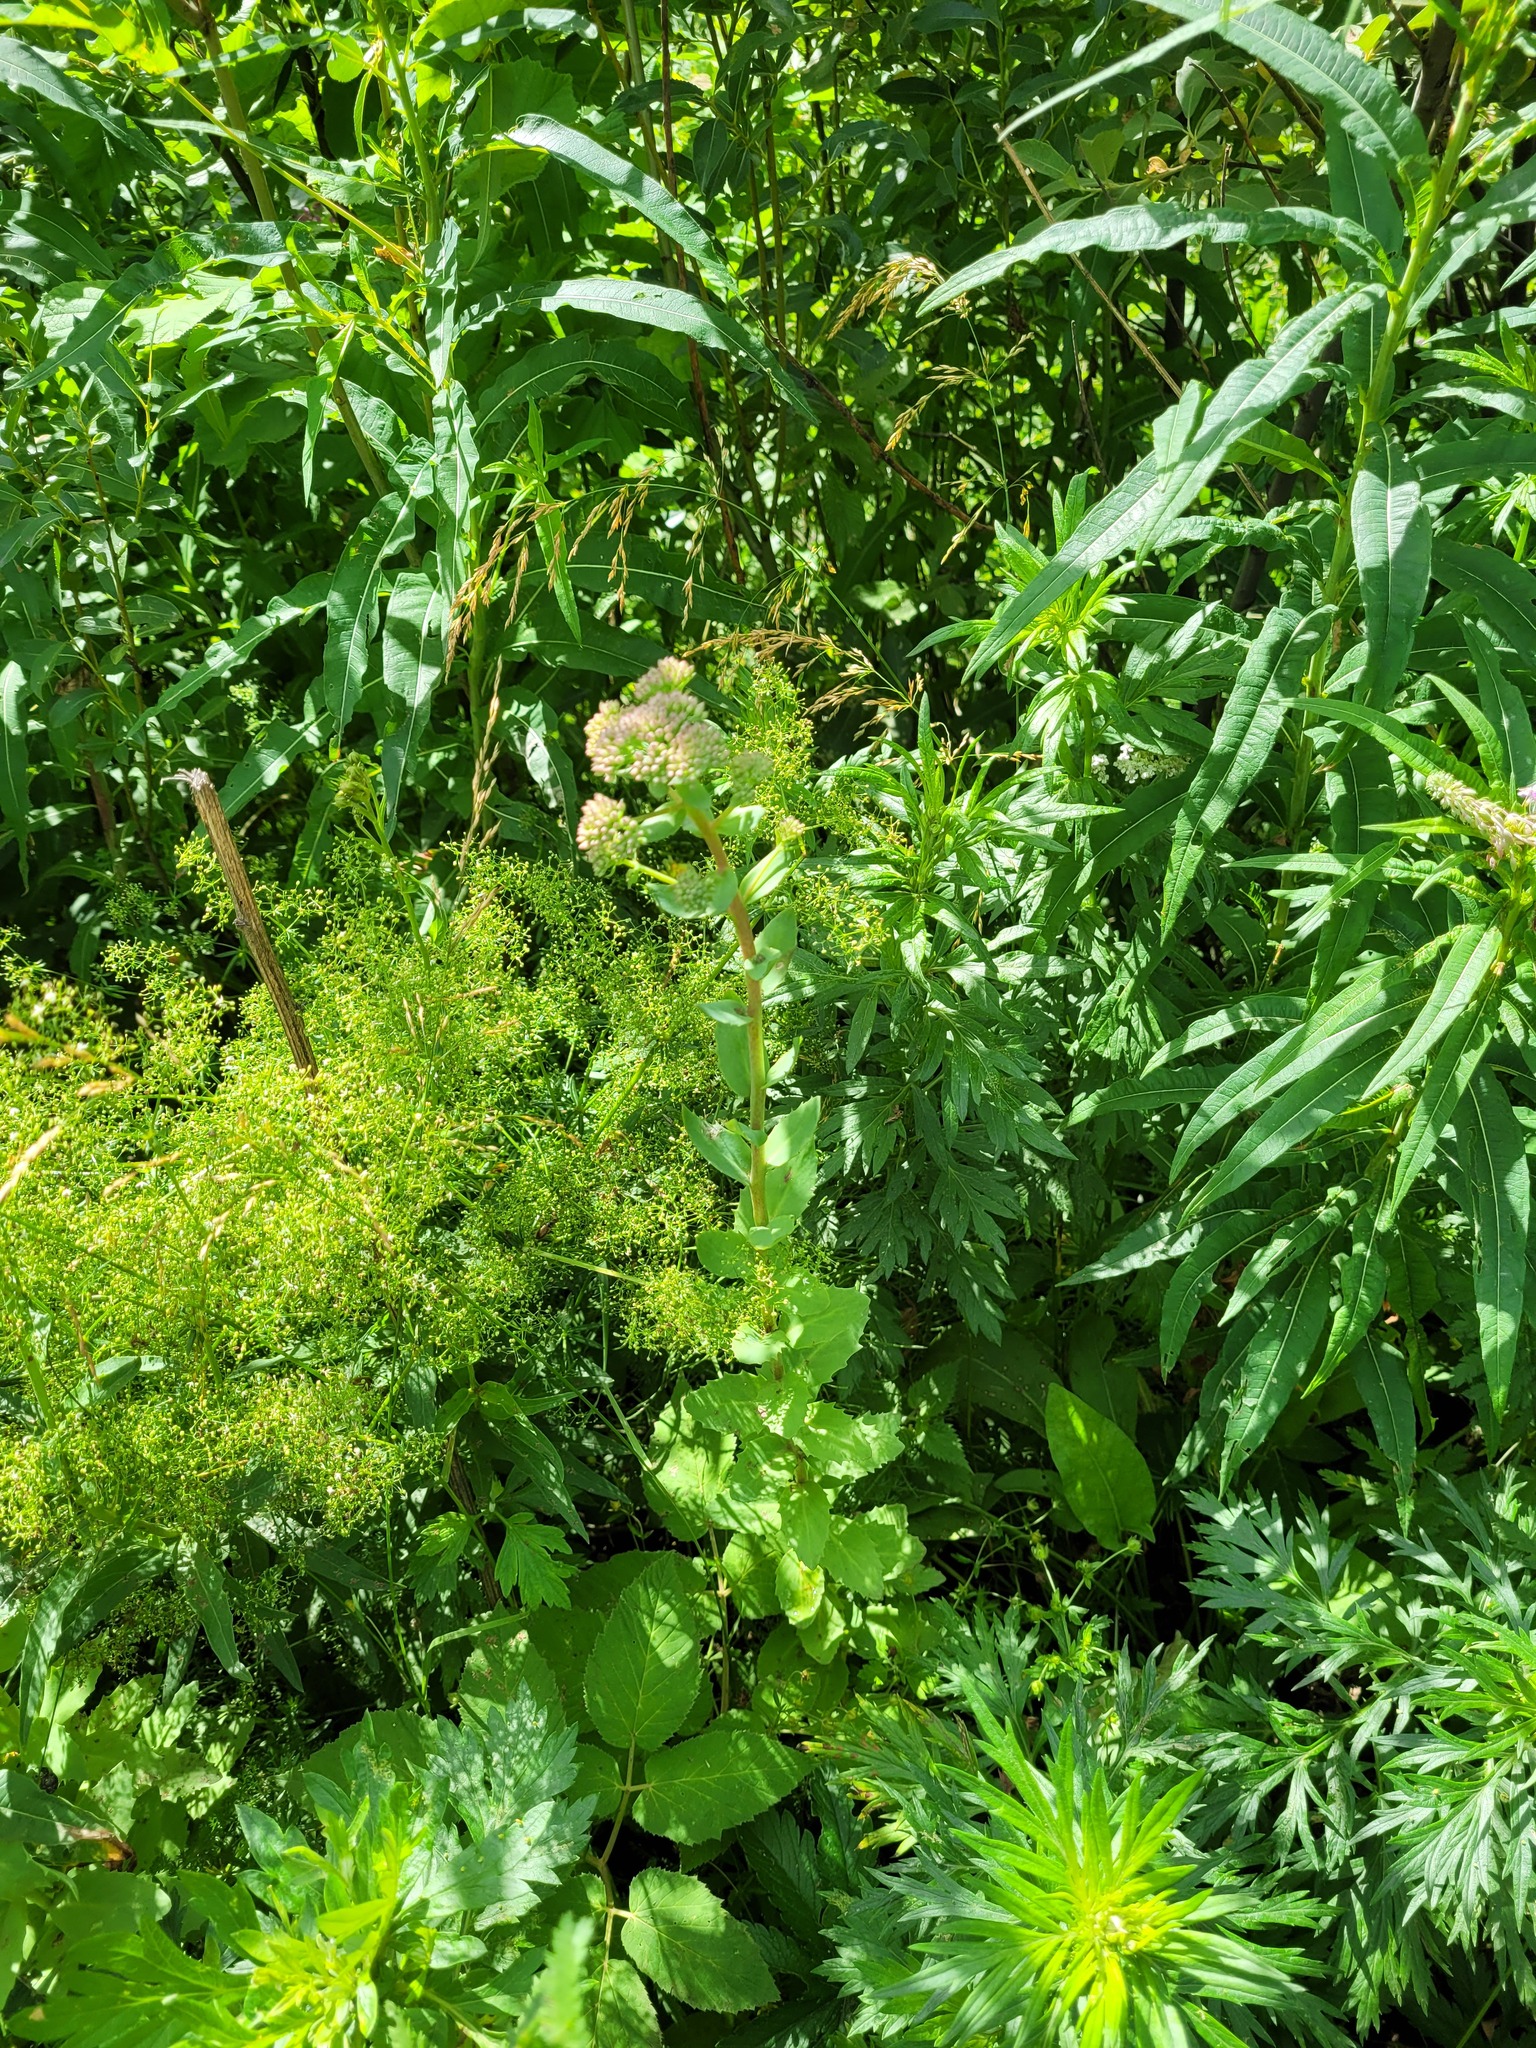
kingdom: Plantae
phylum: Tracheophyta
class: Magnoliopsida
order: Saxifragales
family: Crassulaceae
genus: Hylotelephium
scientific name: Hylotelephium telephium
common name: Live-forever
